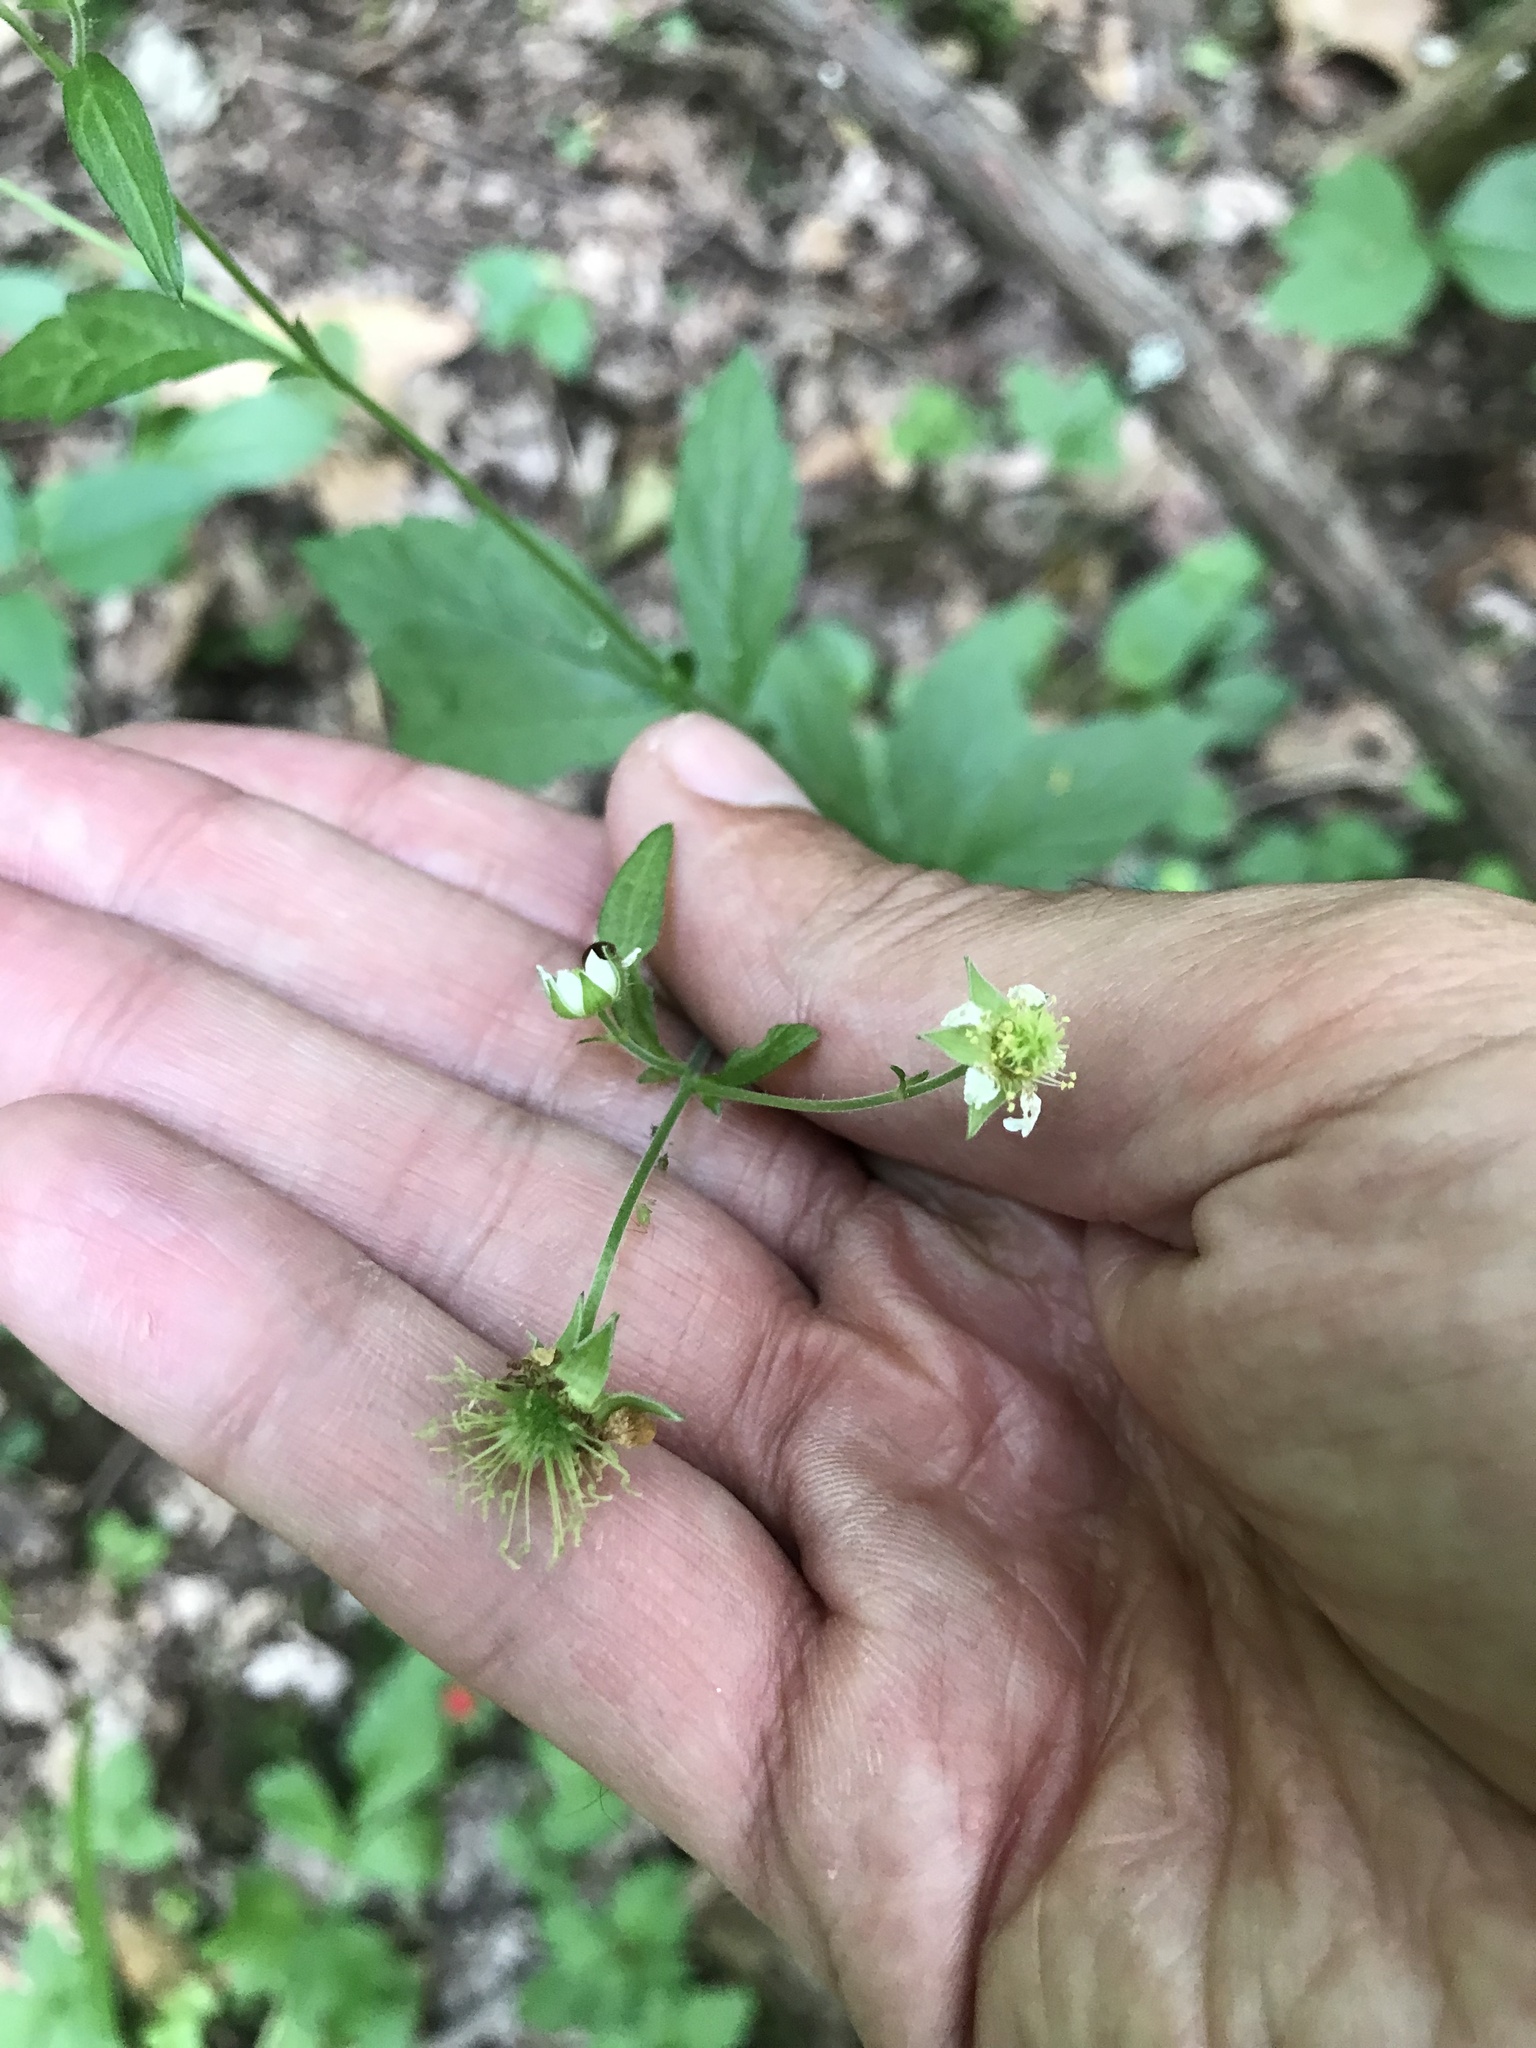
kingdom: Plantae
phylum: Tracheophyta
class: Magnoliopsida
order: Rosales
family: Rosaceae
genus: Geum
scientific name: Geum canadense
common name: White avens
